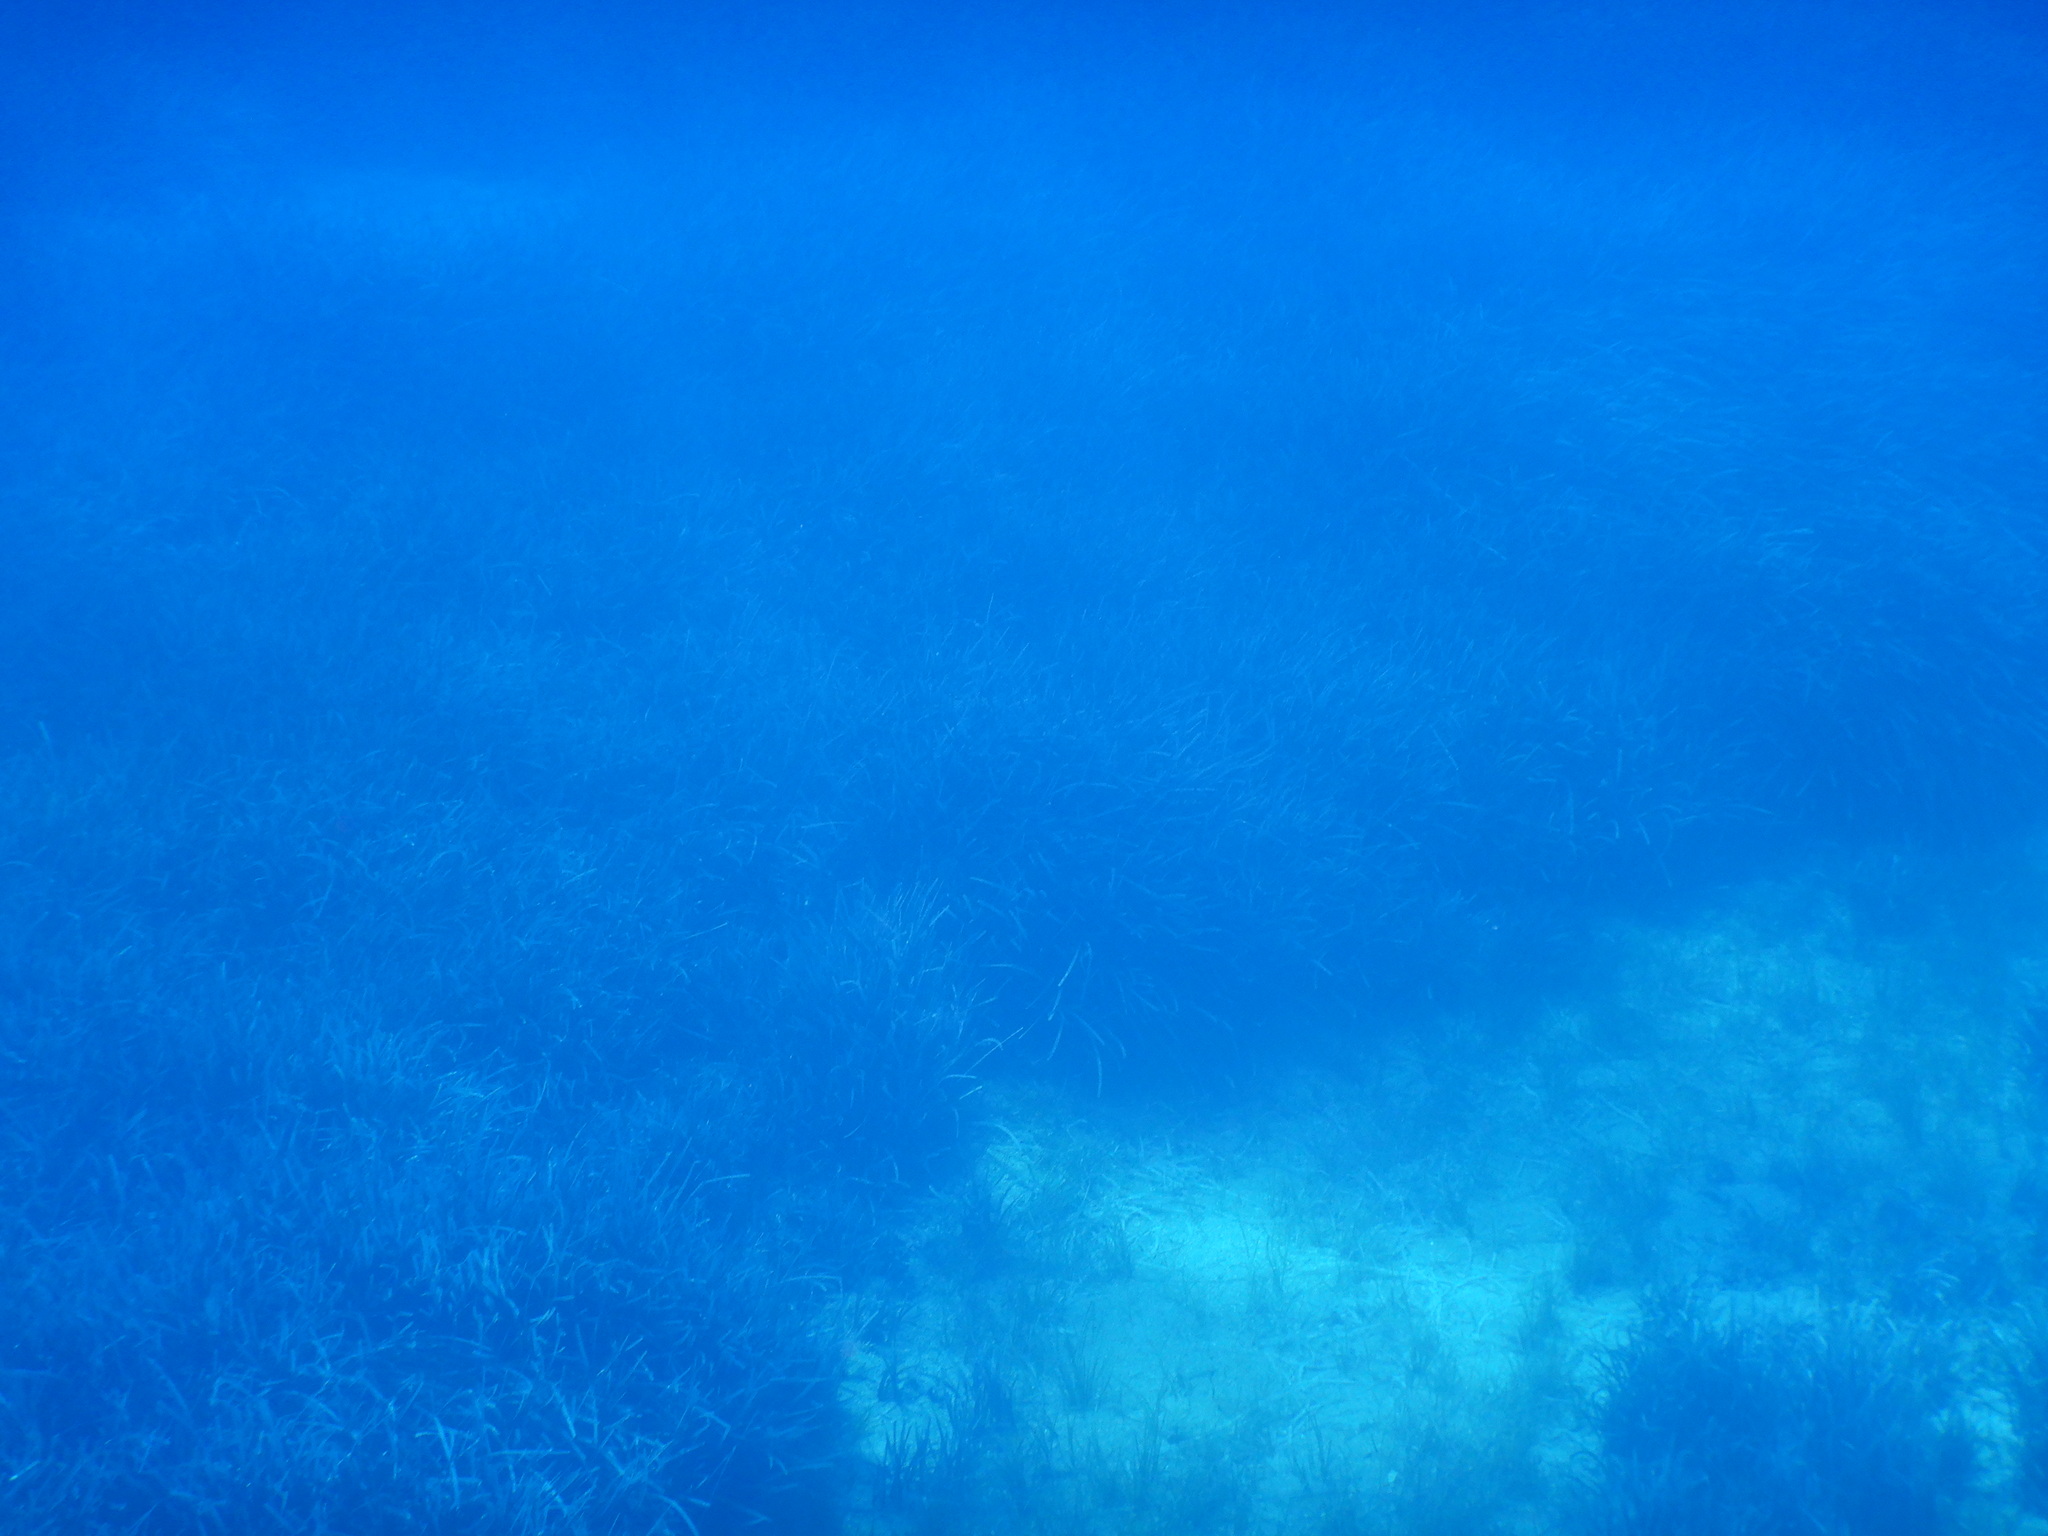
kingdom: Plantae
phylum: Tracheophyta
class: Liliopsida
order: Alismatales
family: Posidoniaceae
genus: Posidonia
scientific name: Posidonia oceanica
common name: Mediterranean tapeweed
